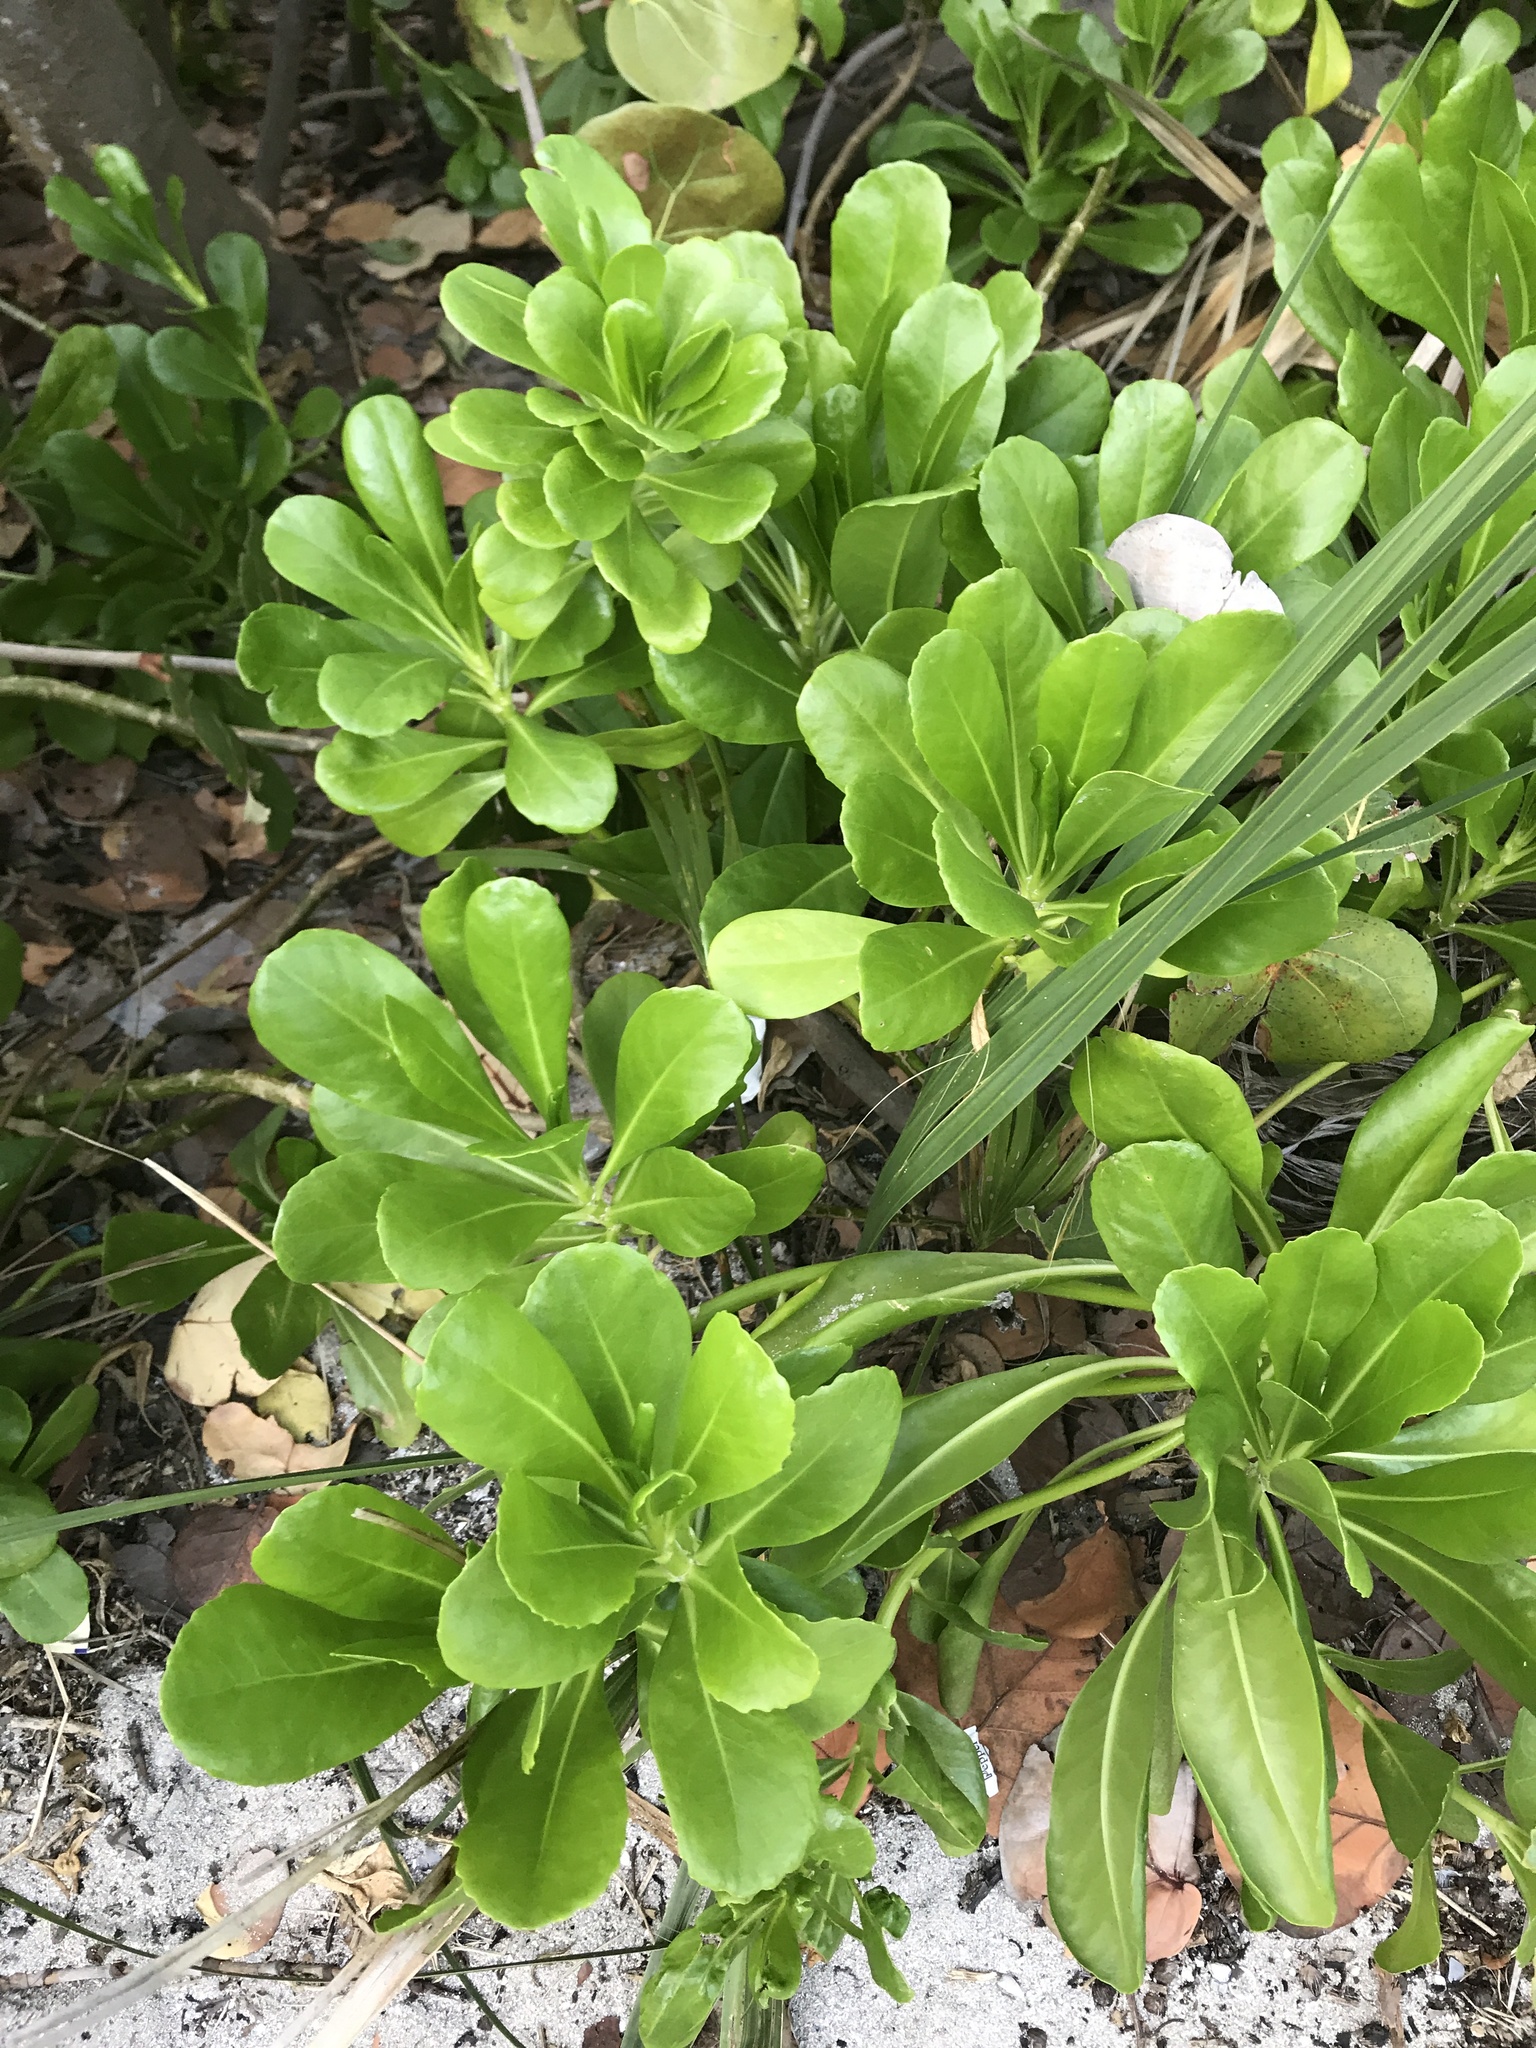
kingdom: Plantae
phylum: Tracheophyta
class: Magnoliopsida
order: Asterales
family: Goodeniaceae
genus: Scaevola
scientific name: Scaevola taccada
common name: Sea lettucetree
